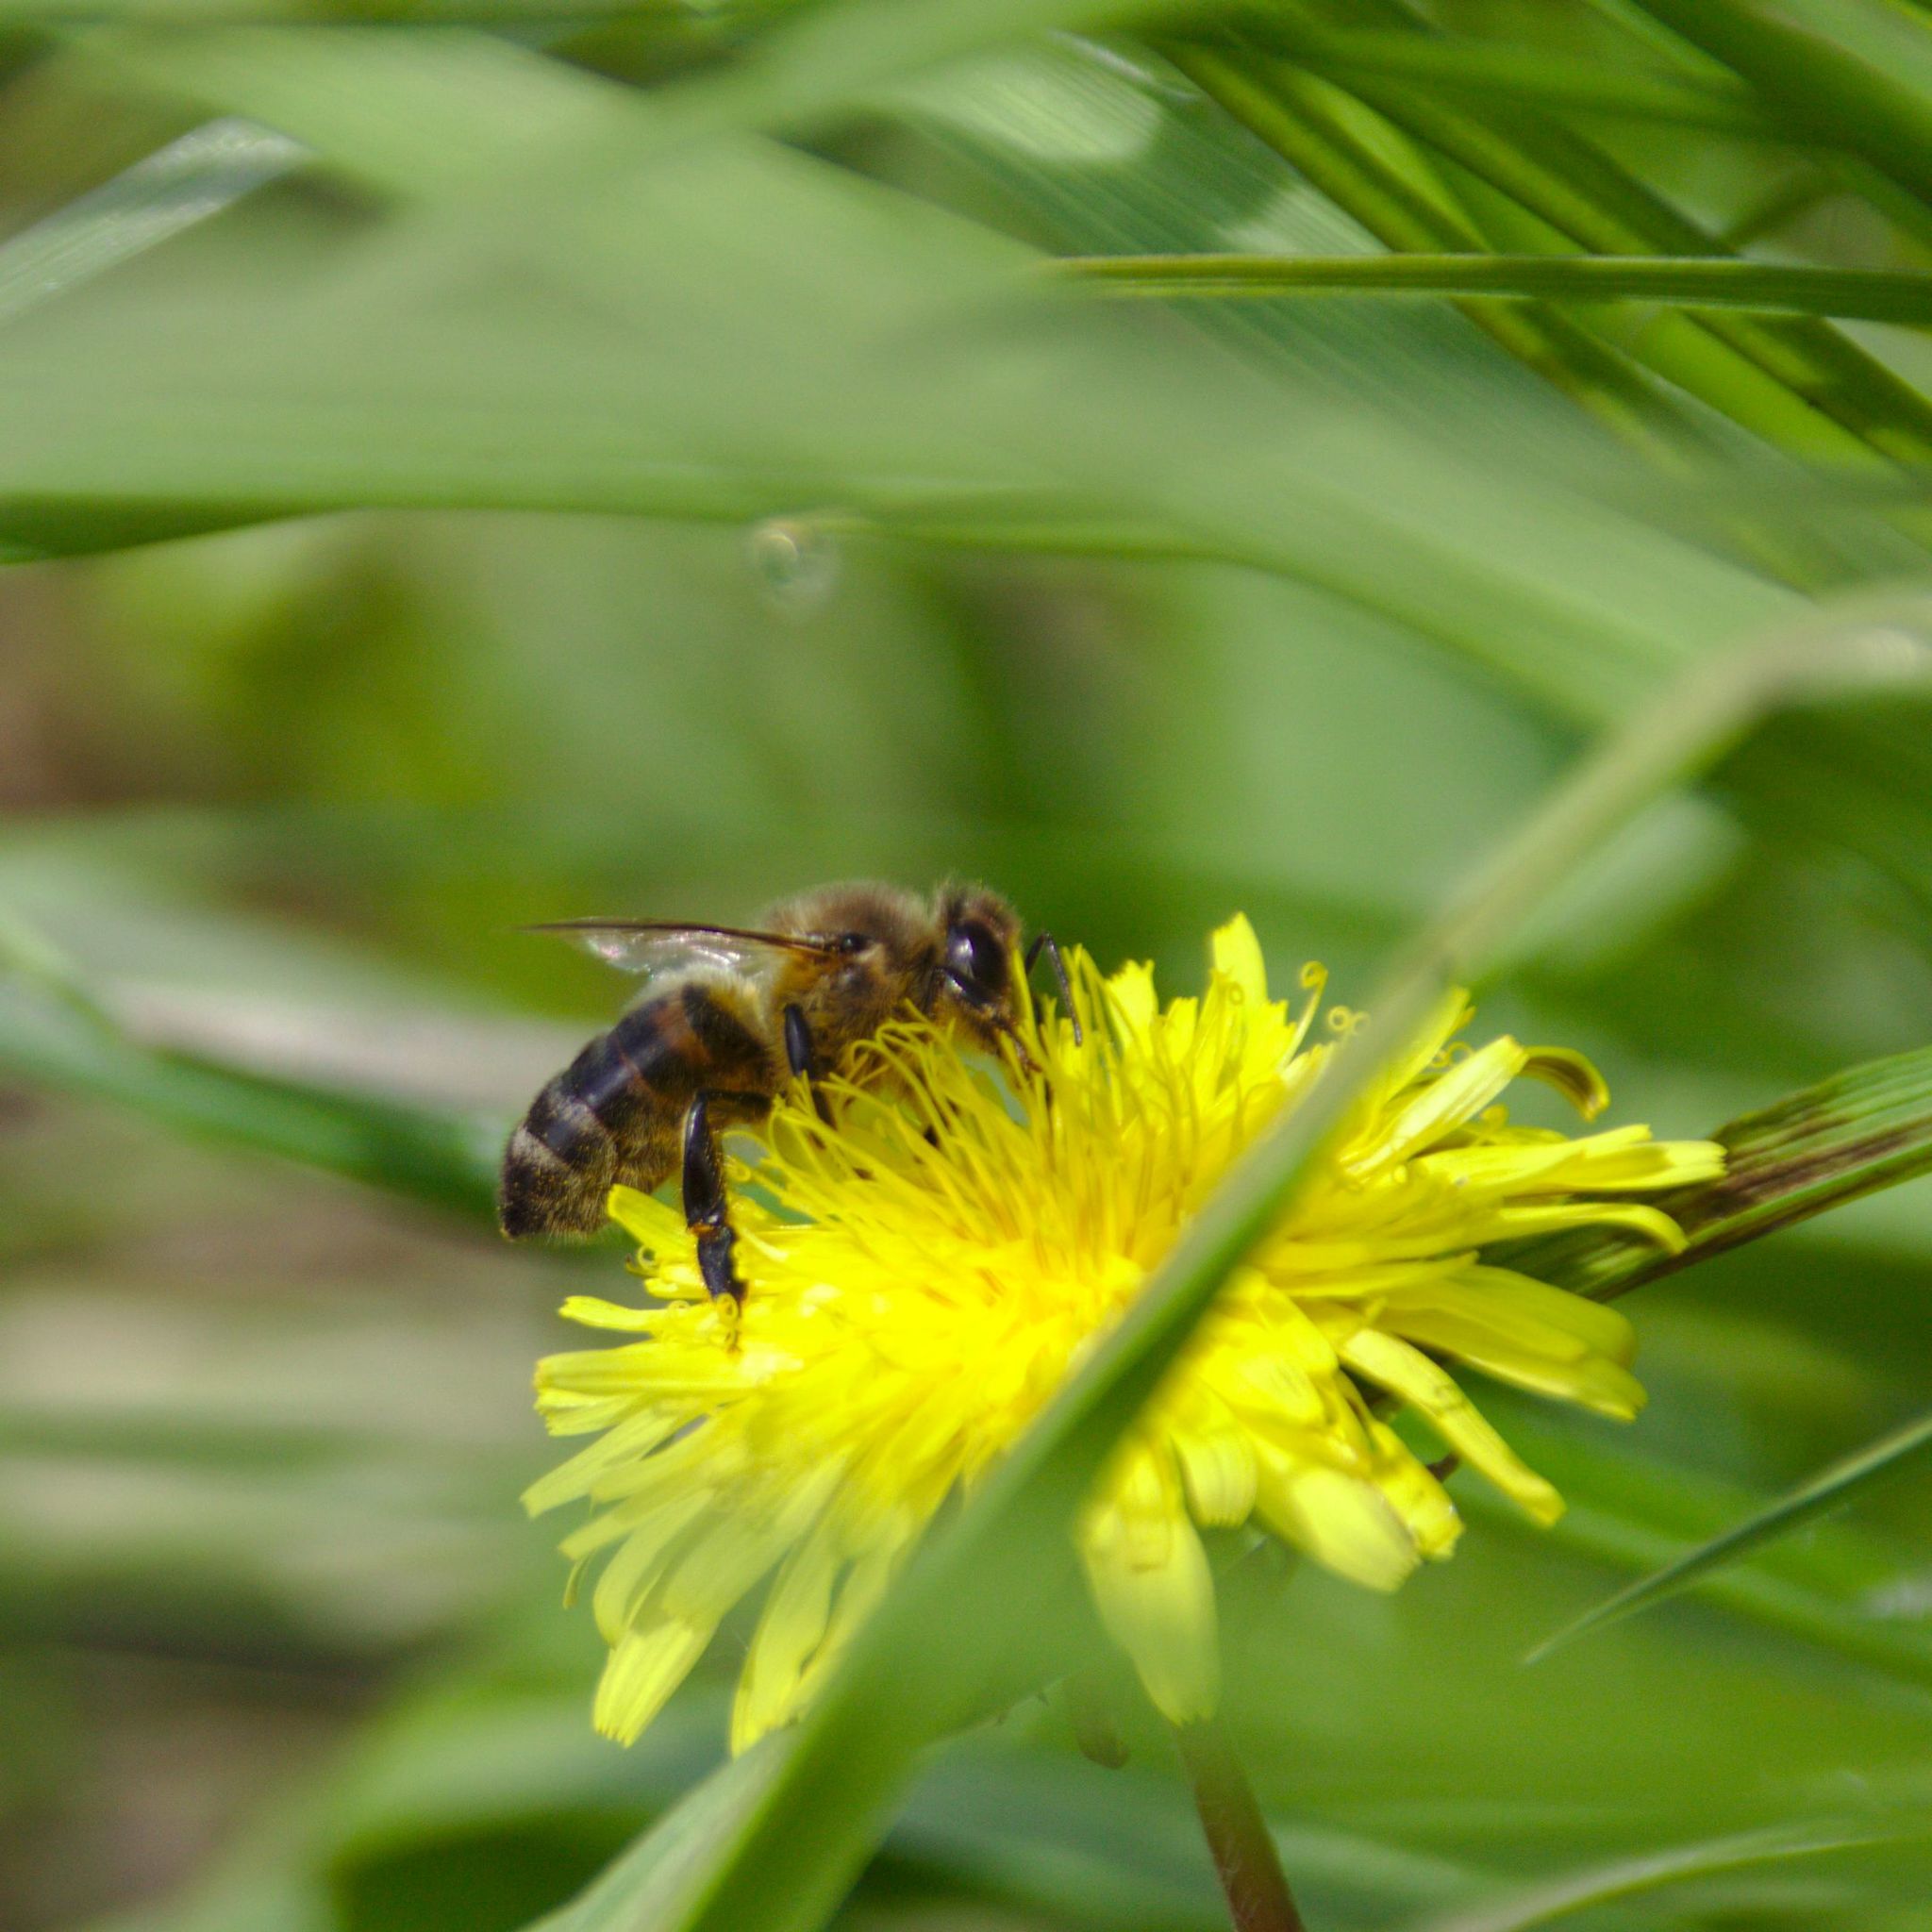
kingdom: Animalia
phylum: Arthropoda
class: Insecta
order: Hymenoptera
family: Apidae
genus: Apis
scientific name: Apis mellifera
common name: Honey bee
